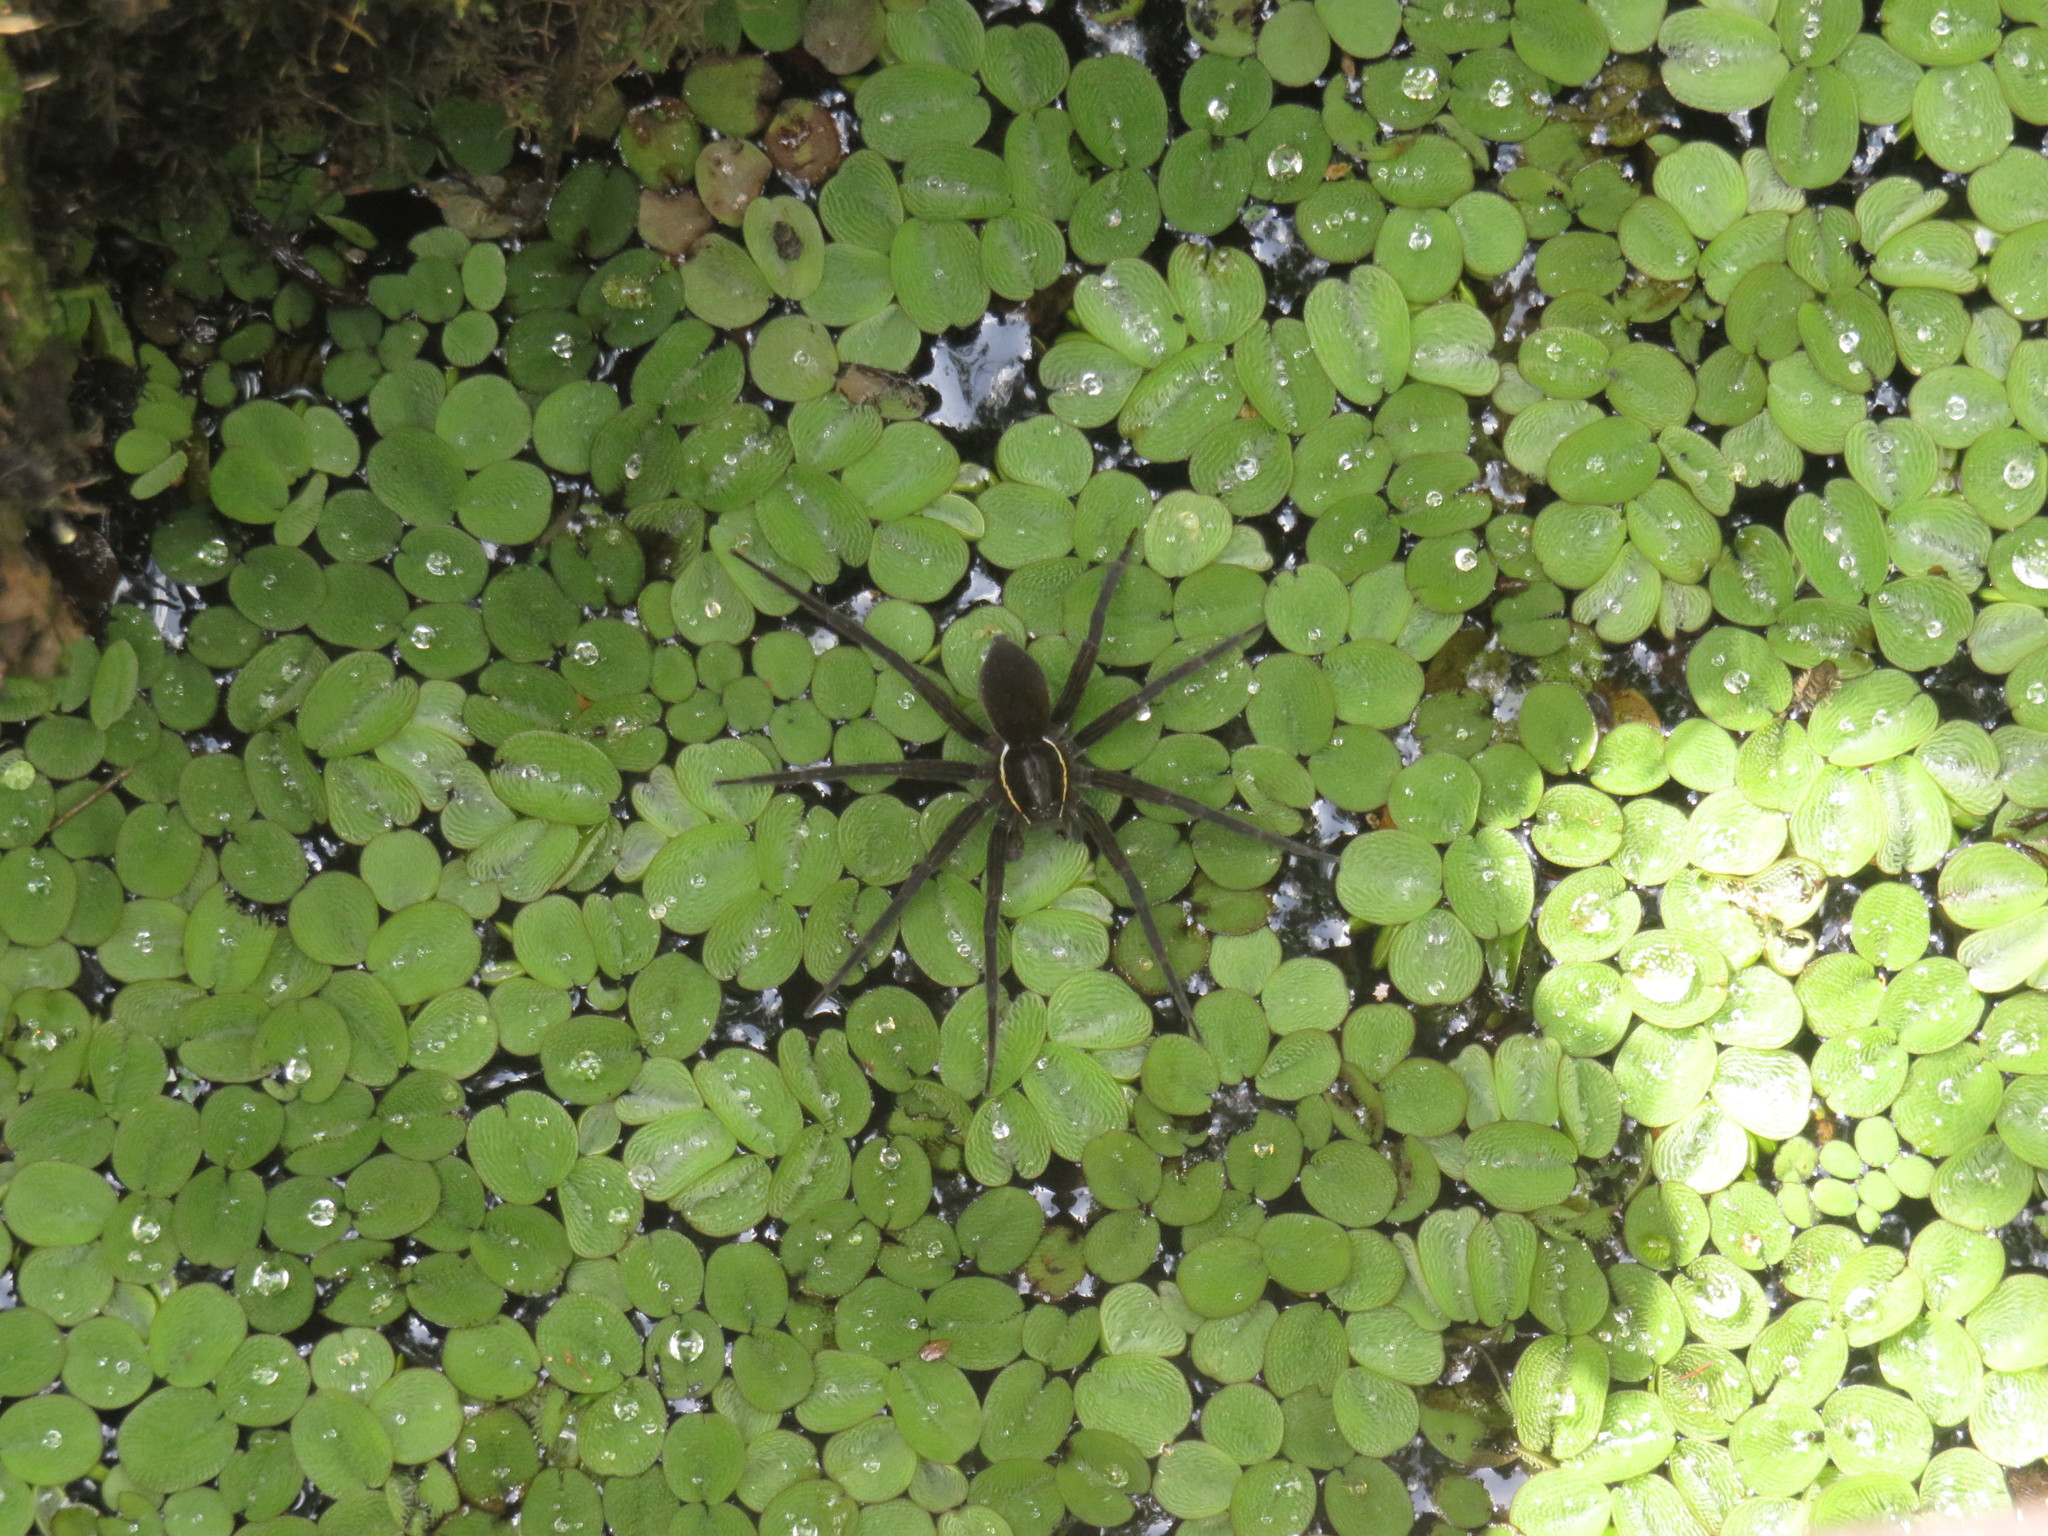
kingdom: Animalia
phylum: Arthropoda
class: Arachnida
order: Araneae
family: Pisauridae
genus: Dolomedes
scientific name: Dolomedes triton
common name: Six-spotted fishing spider
